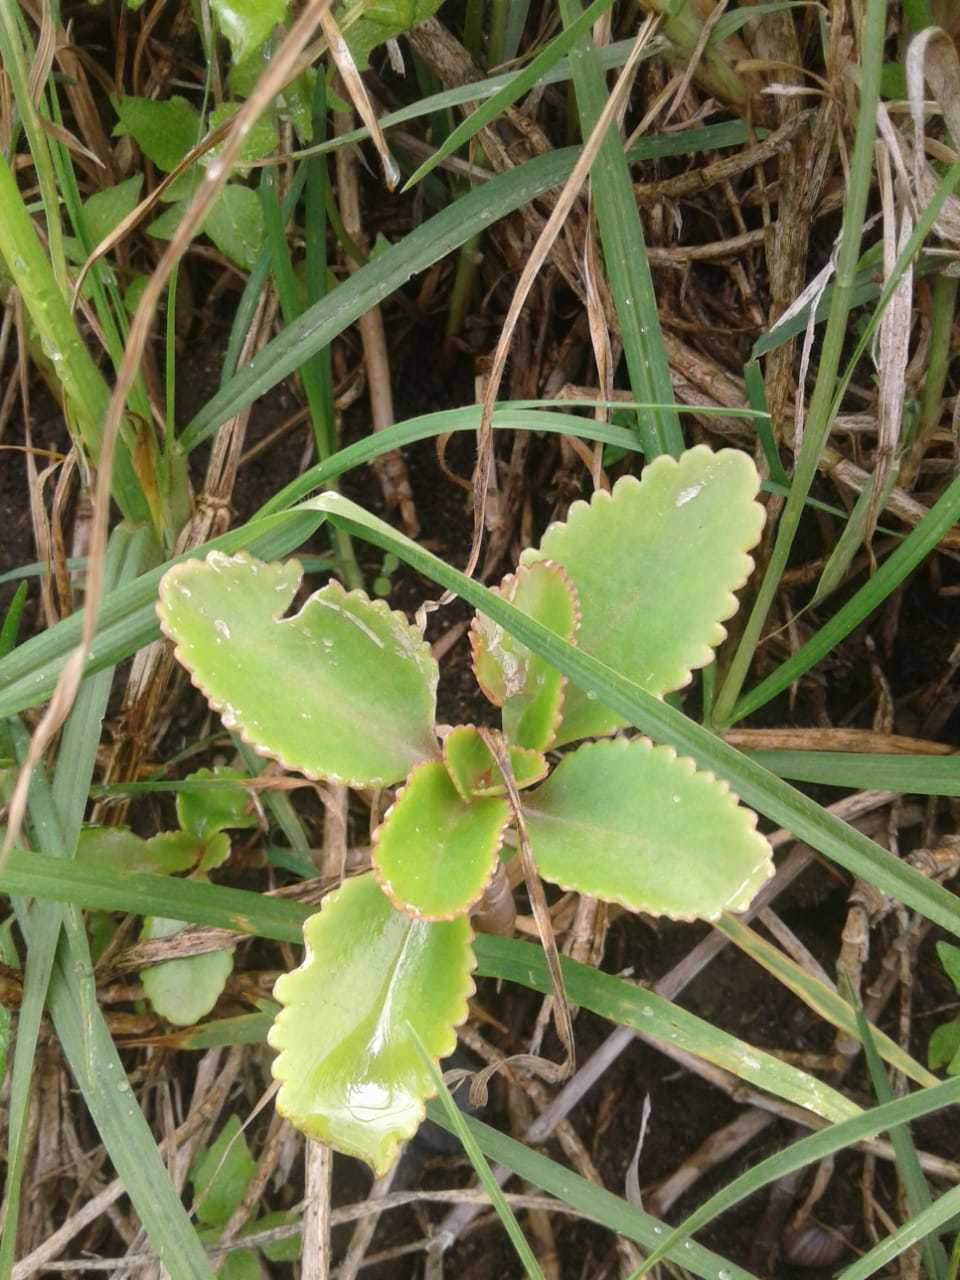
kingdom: Plantae
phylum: Tracheophyta
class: Magnoliopsida
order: Saxifragales
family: Crassulaceae
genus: Kalanchoe
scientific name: Kalanchoe densiflora
